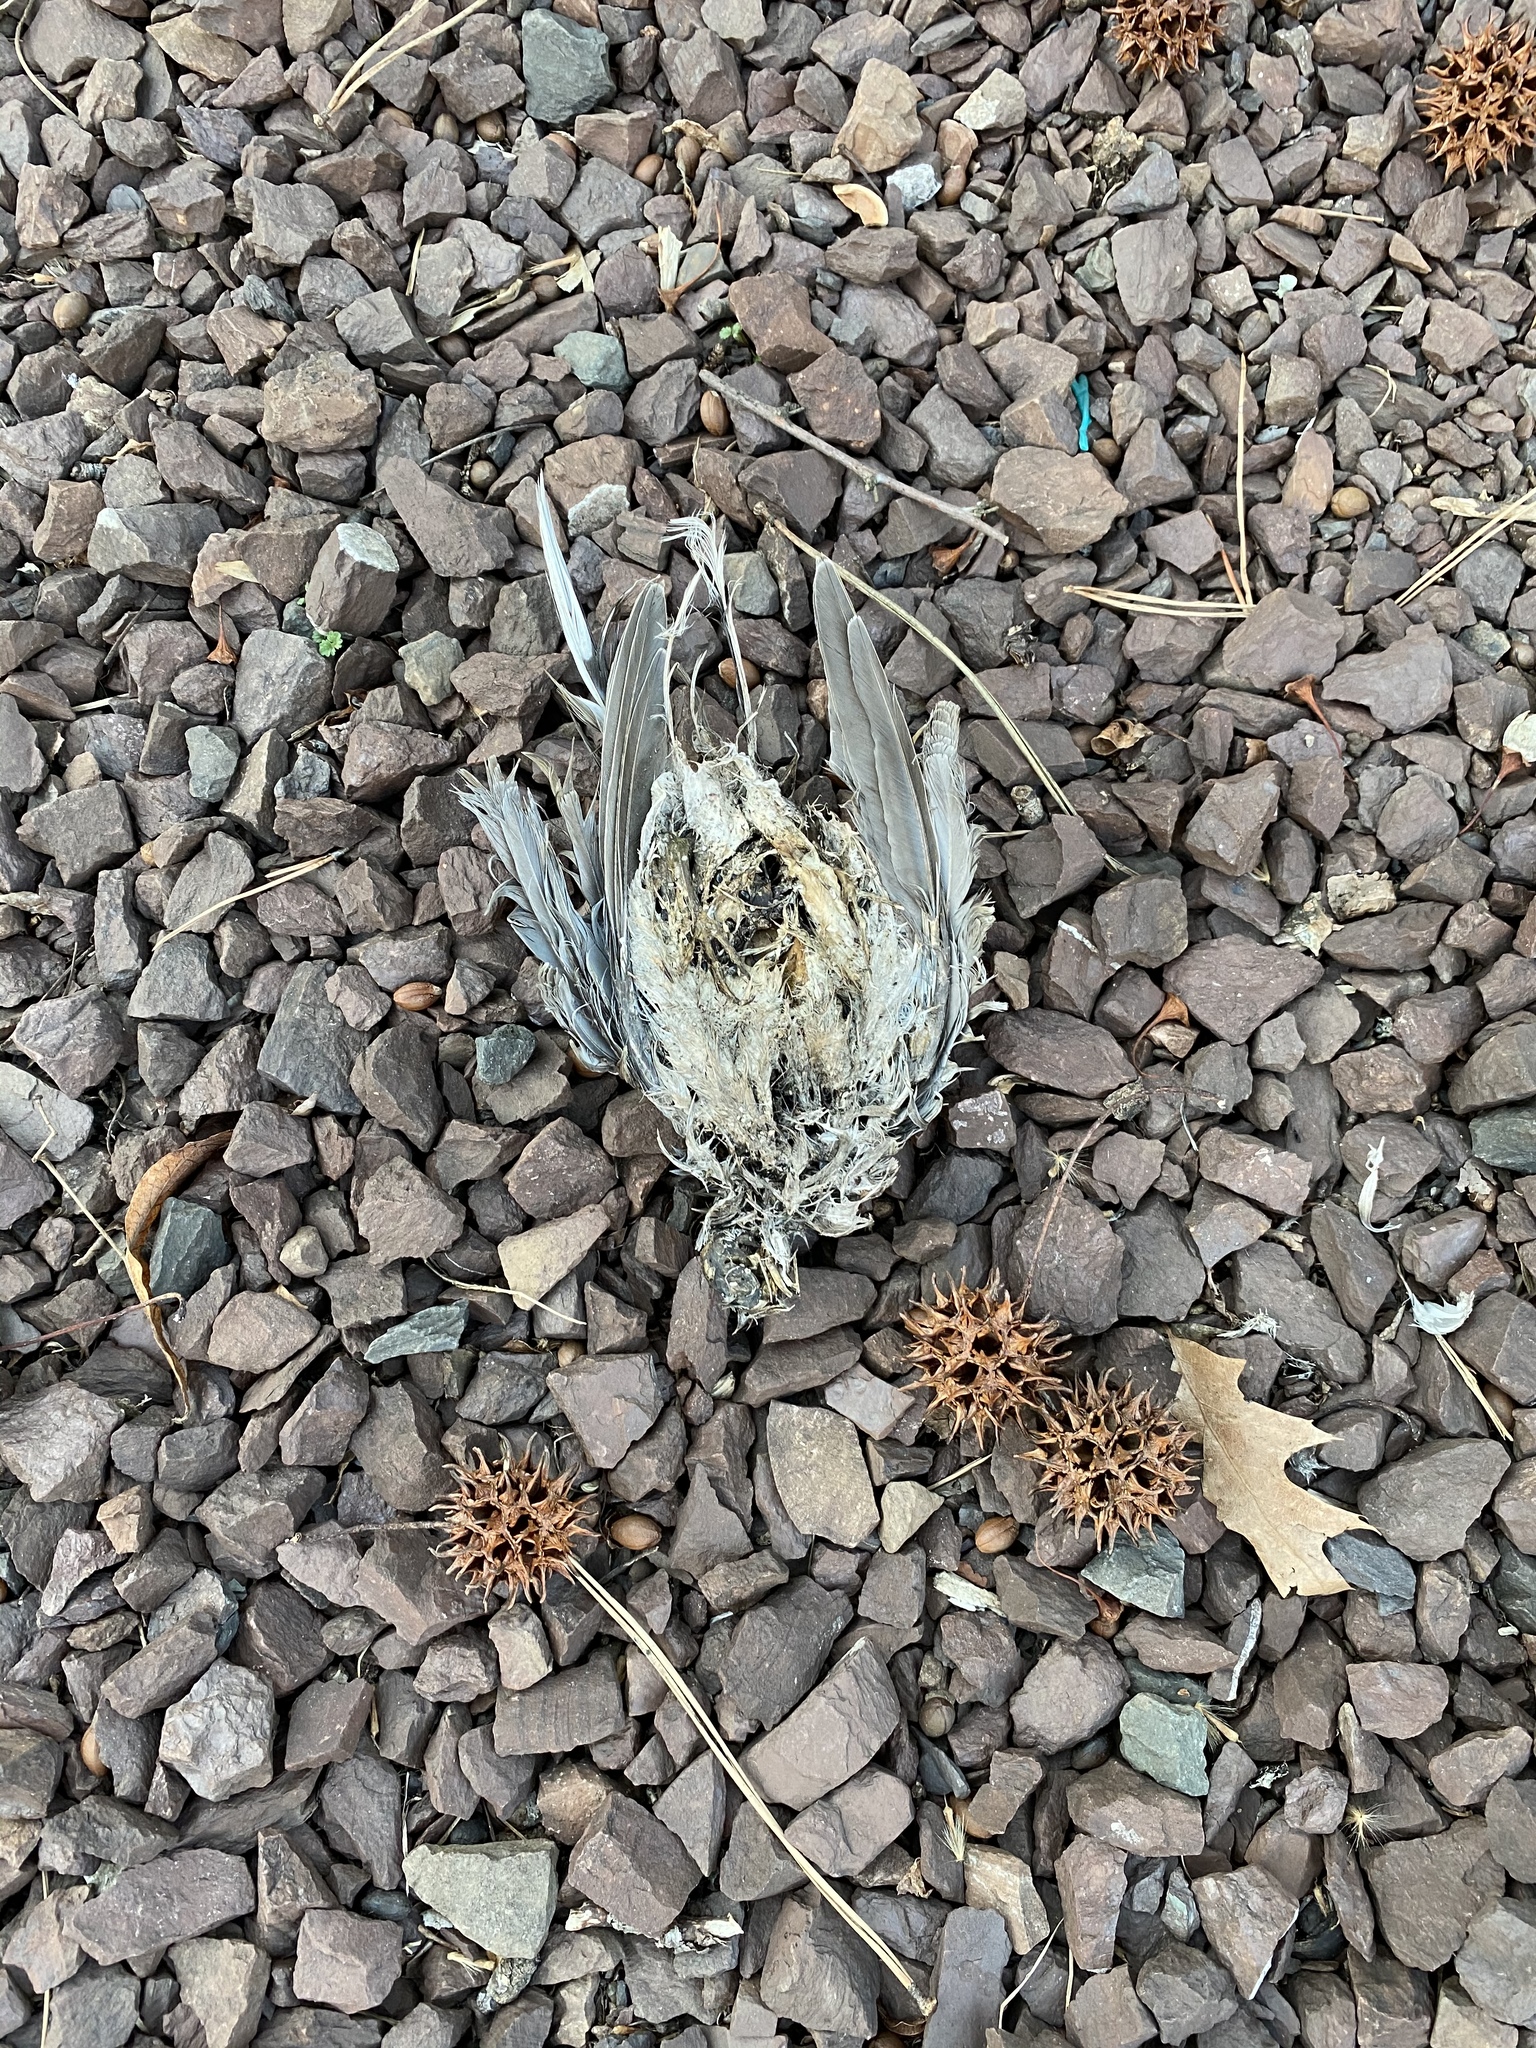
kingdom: Animalia
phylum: Chordata
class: Aves
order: Columbiformes
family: Columbidae
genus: Zenaida
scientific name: Zenaida macroura
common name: Mourning dove
